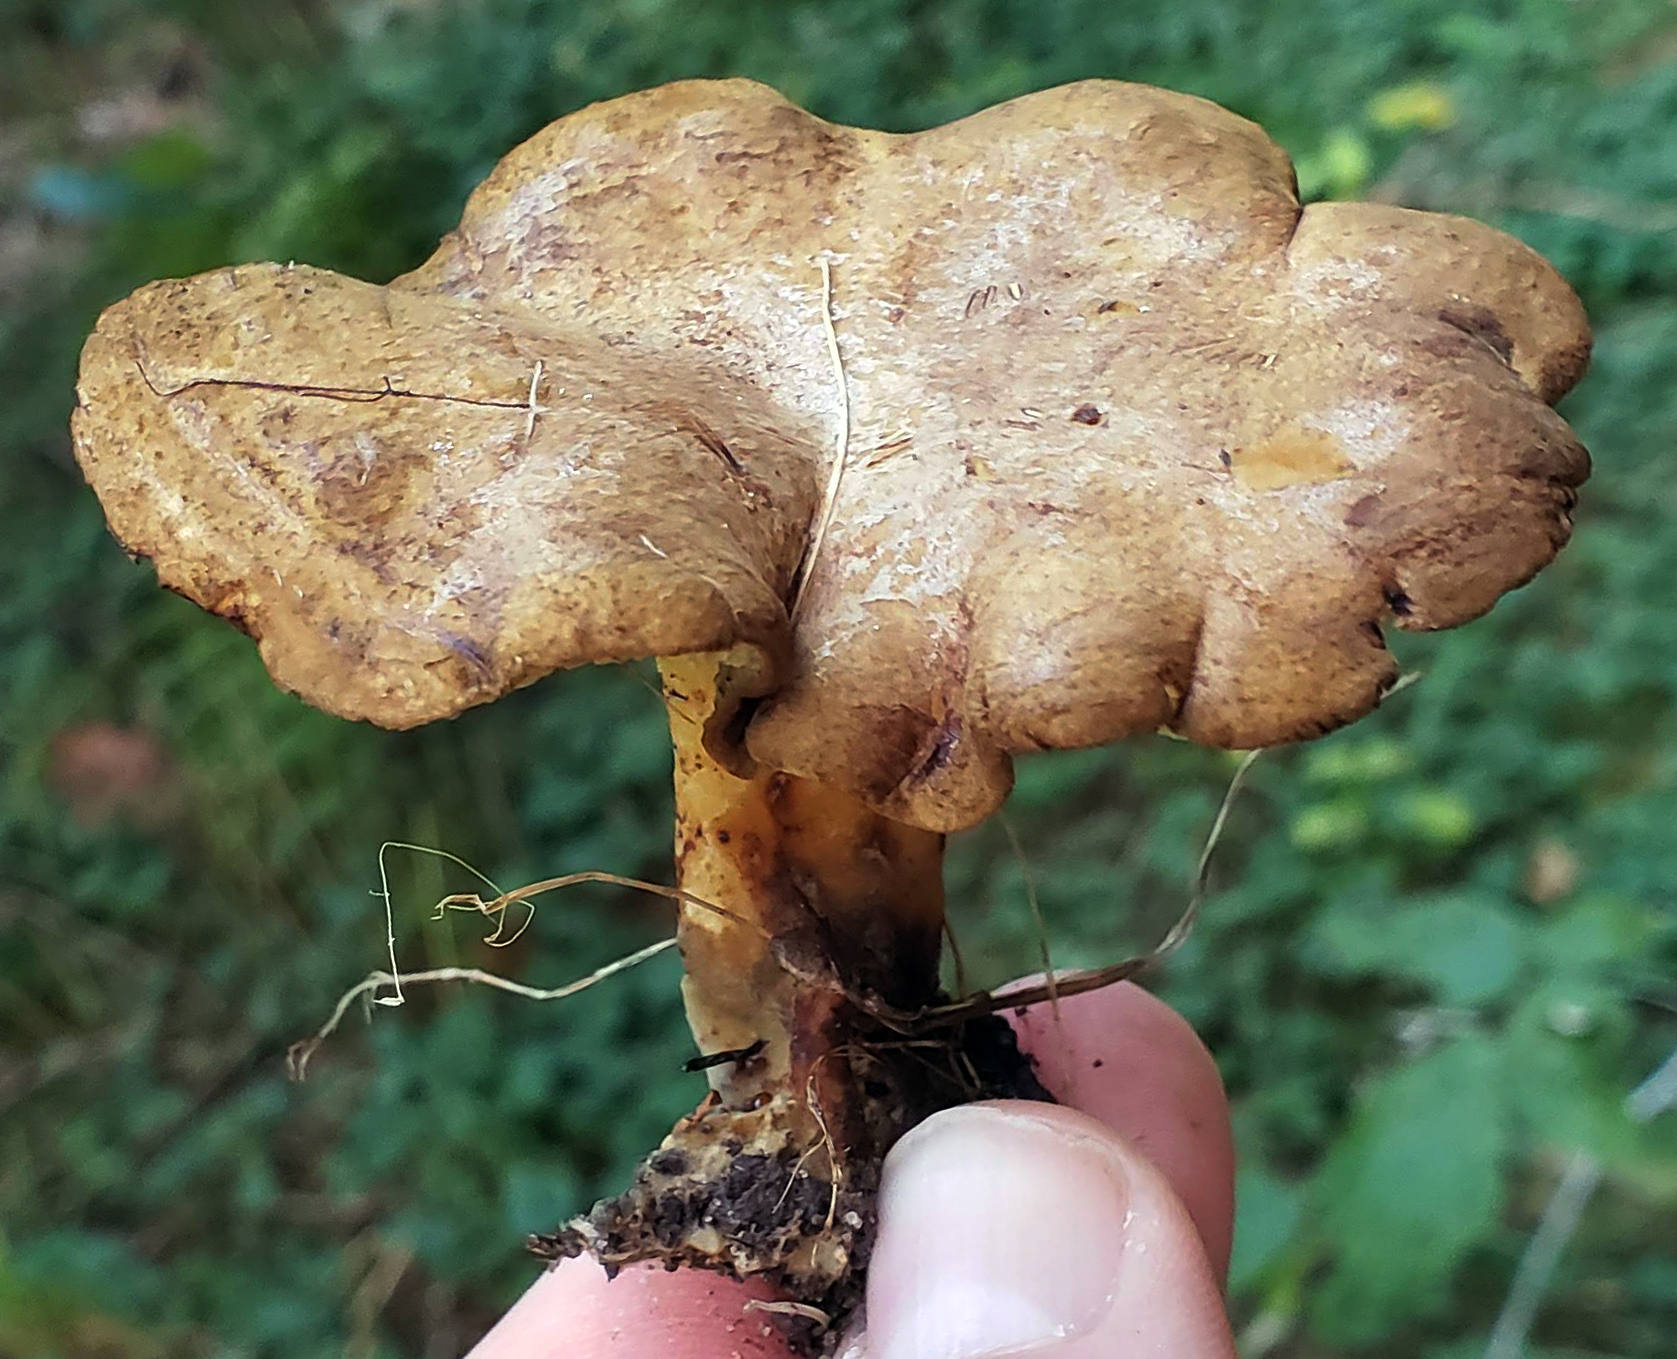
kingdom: Fungi
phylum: Basidiomycota
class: Agaricomycetes
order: Boletales
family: Boletinellaceae
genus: Boletinellus
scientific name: Boletinellus merulioides
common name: Ash tree bolete
